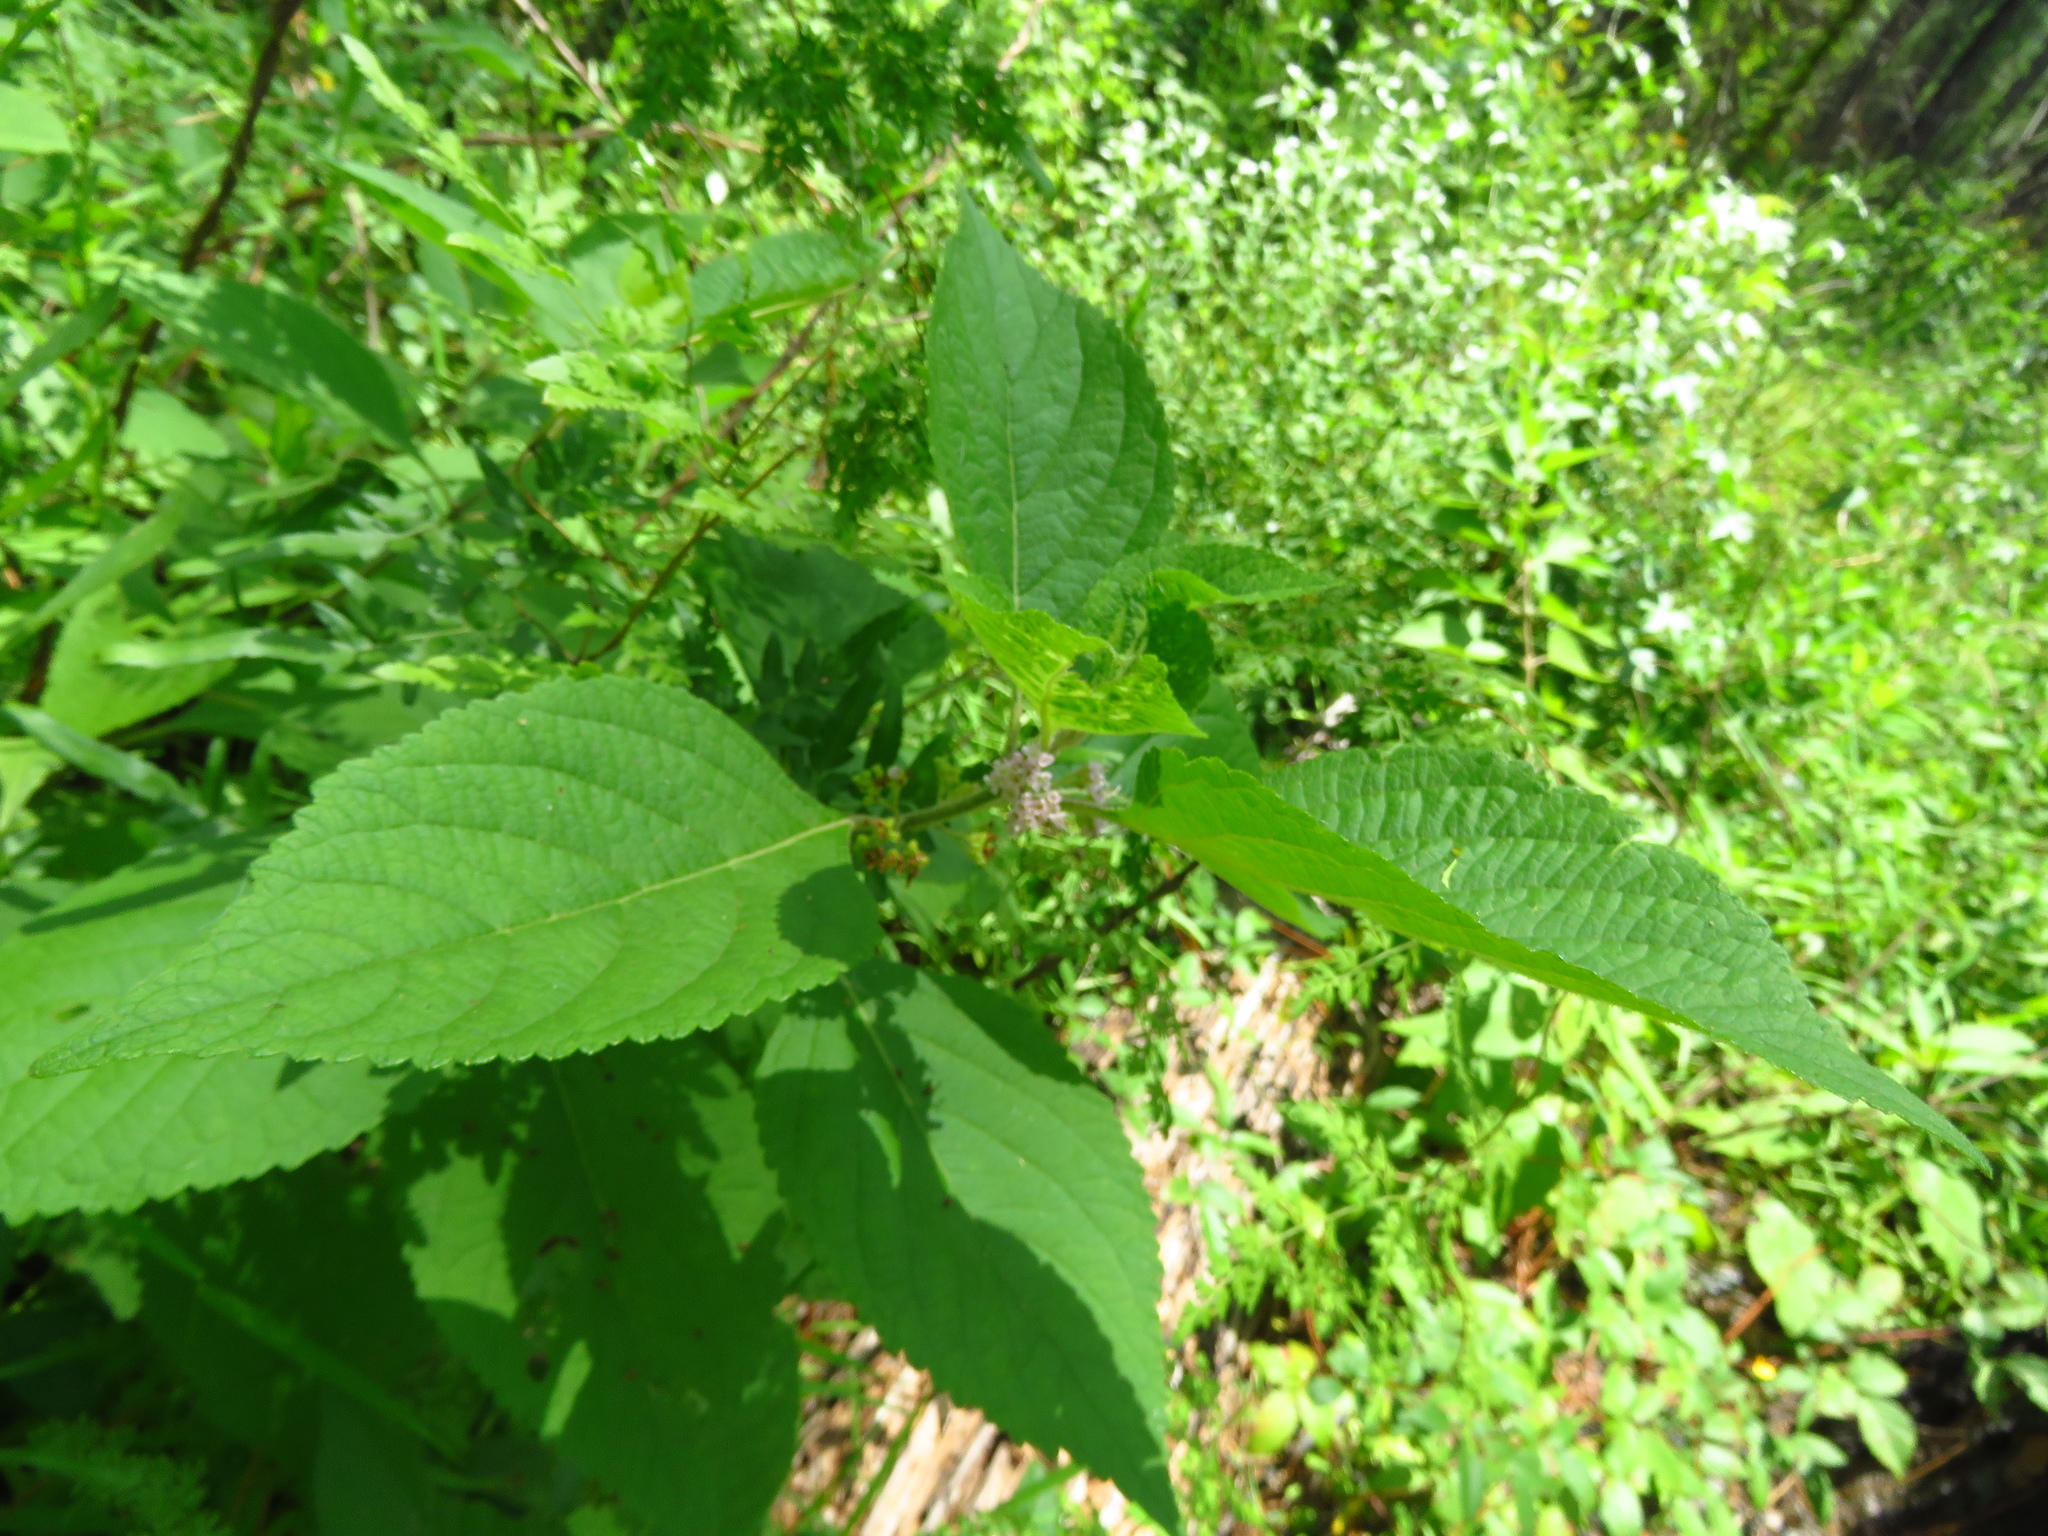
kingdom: Plantae
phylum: Tracheophyta
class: Magnoliopsida
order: Lamiales
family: Lamiaceae
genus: Callicarpa
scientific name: Callicarpa americana
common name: American beautyberry
